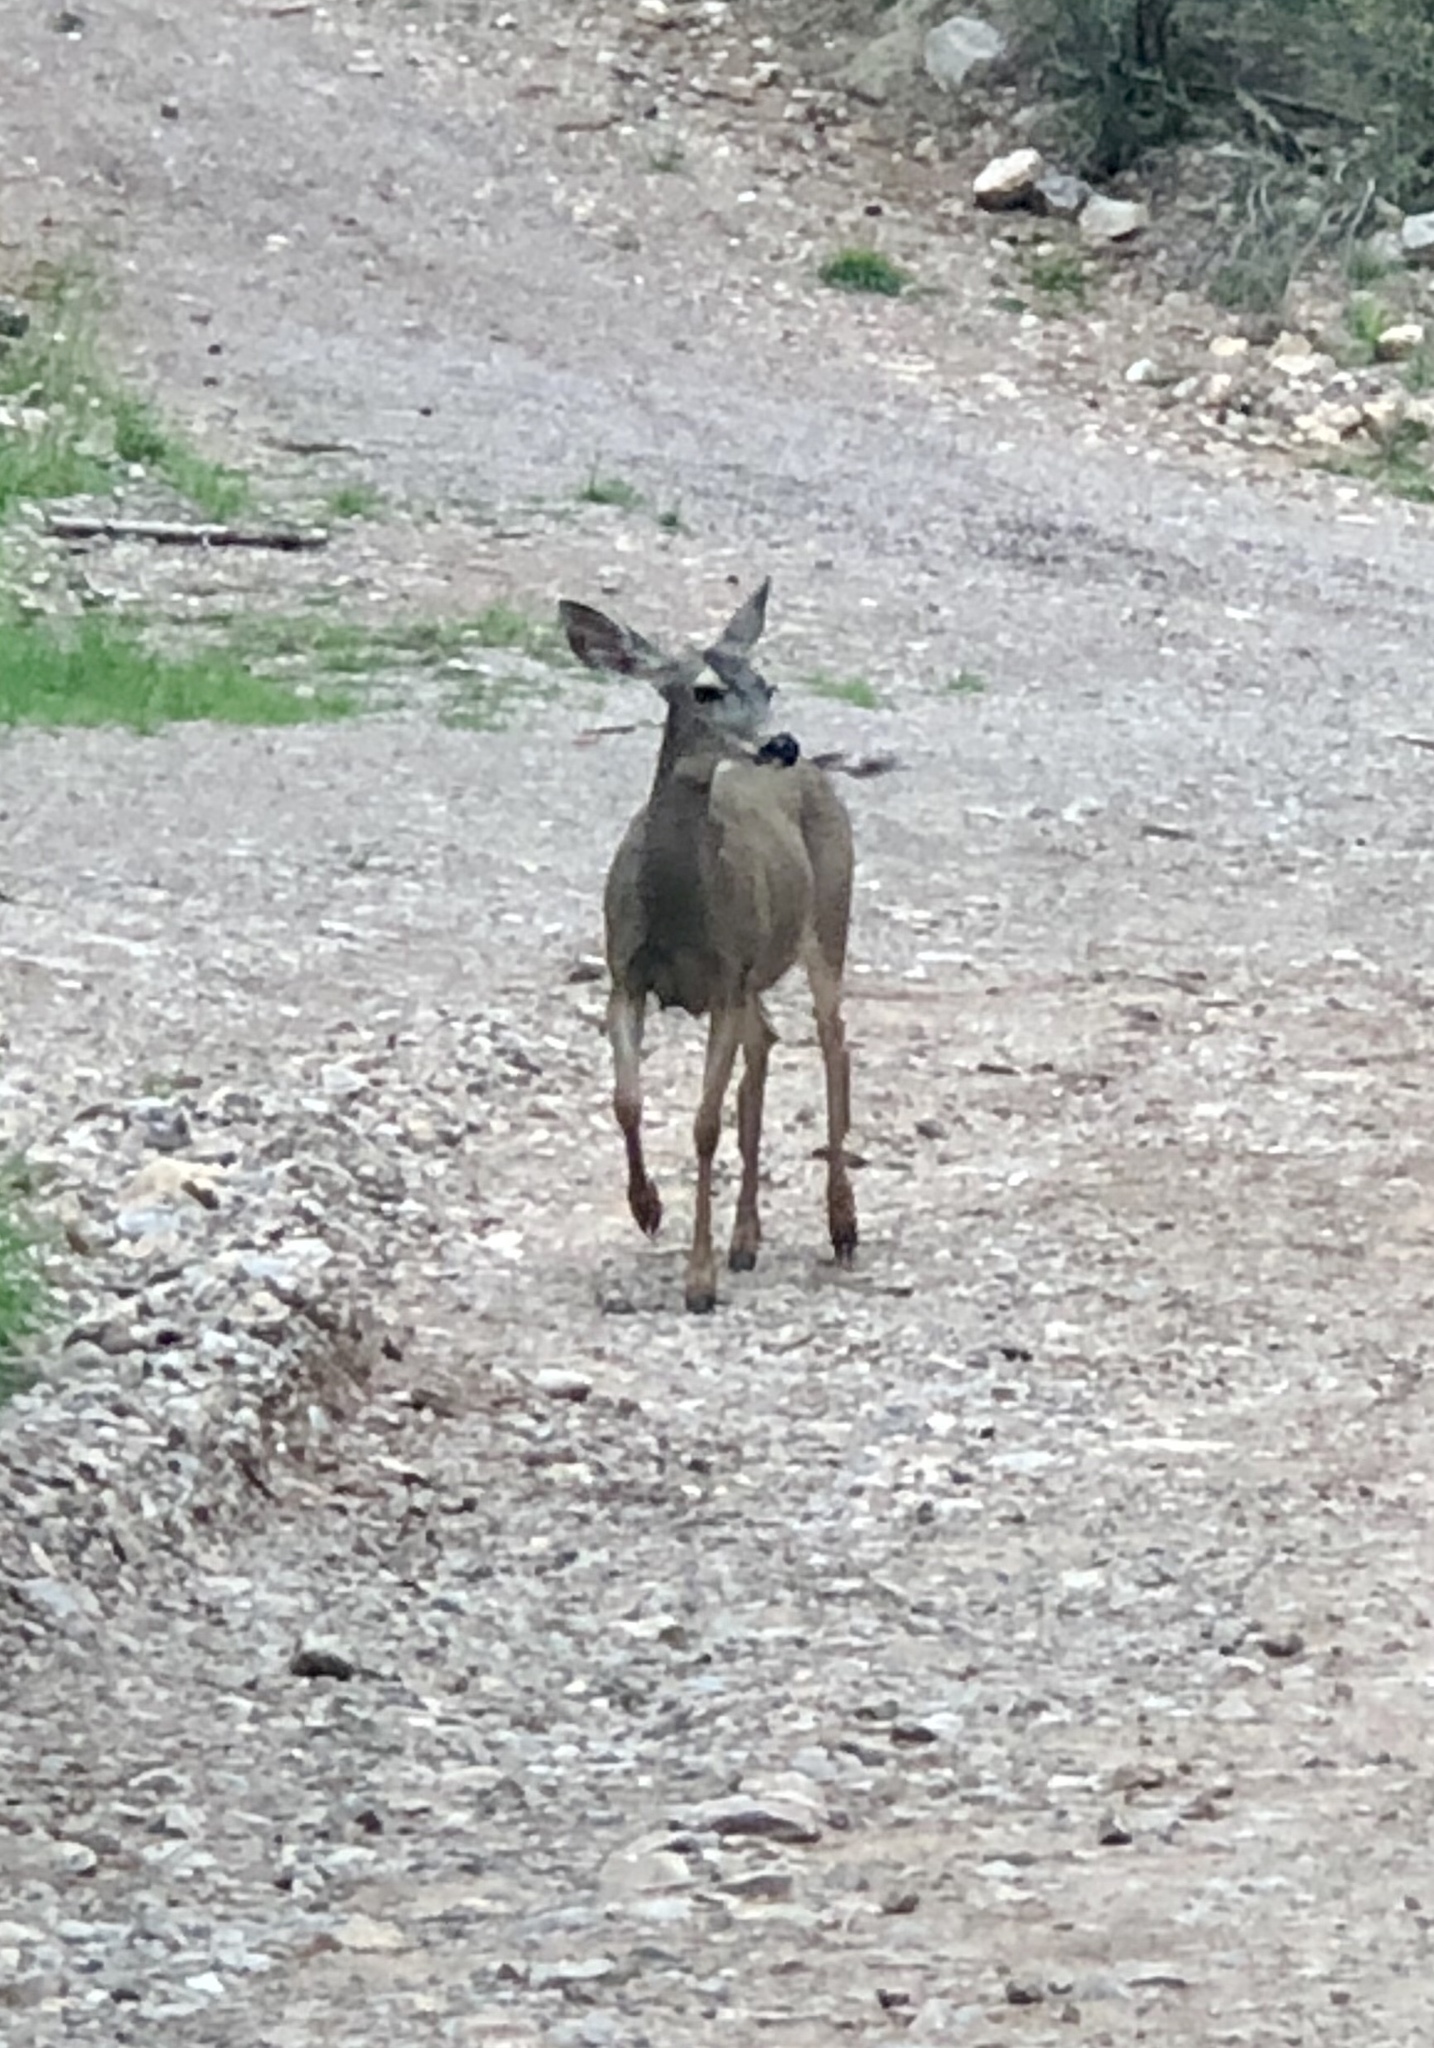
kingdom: Animalia
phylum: Chordata
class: Mammalia
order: Artiodactyla
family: Cervidae
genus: Odocoileus
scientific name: Odocoileus hemionus
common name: Mule deer
